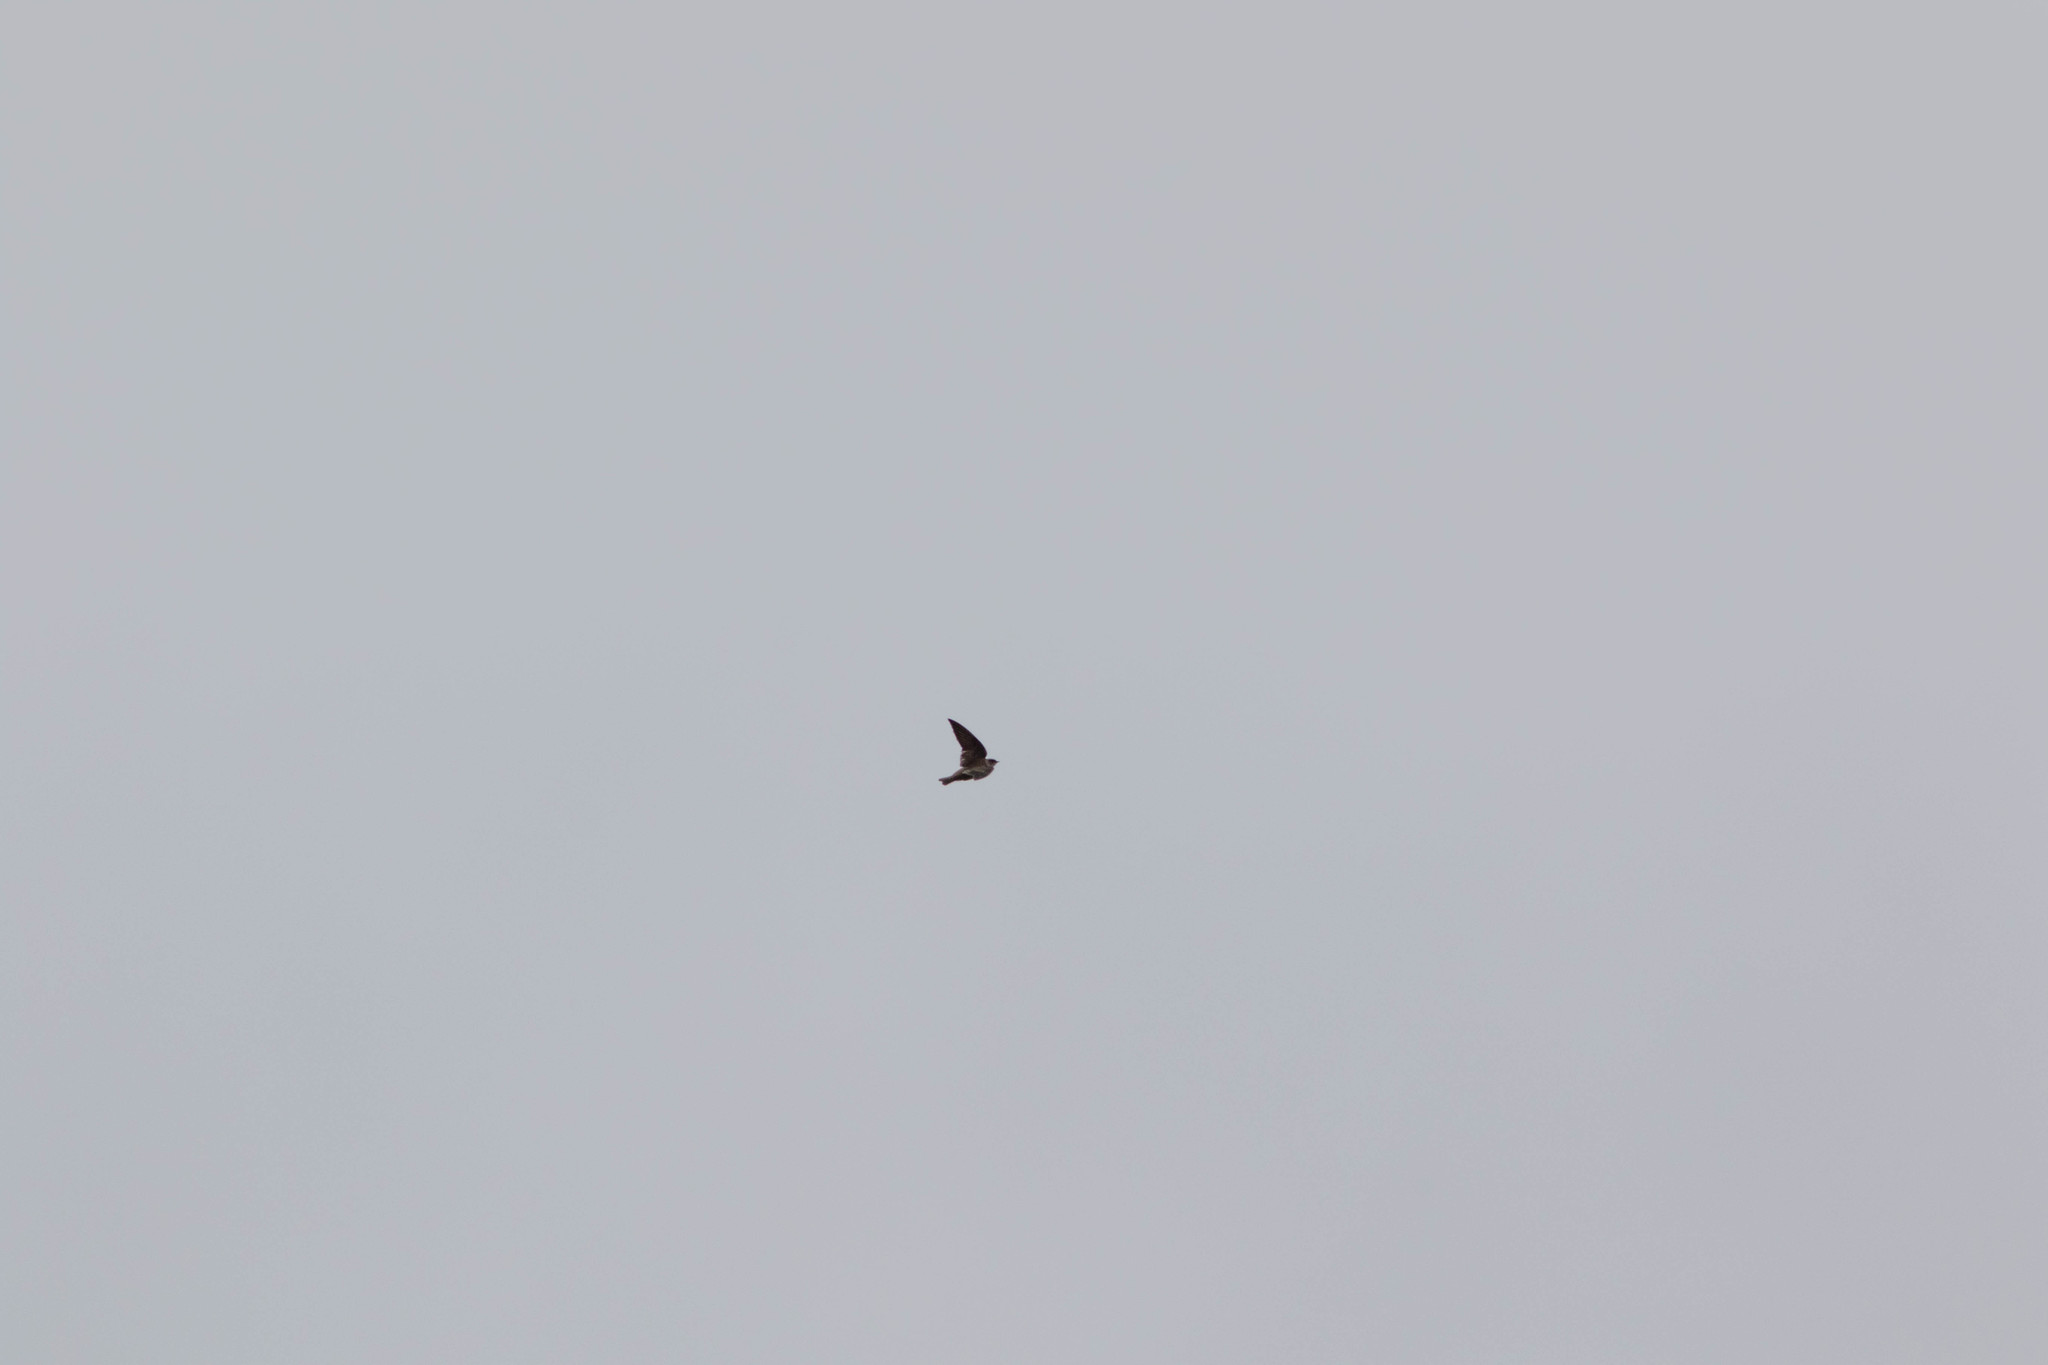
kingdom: Animalia
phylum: Chordata
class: Aves
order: Passeriformes
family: Hirundinidae
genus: Stelgidopteryx
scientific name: Stelgidopteryx serripennis
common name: Northern rough-winged swallow
